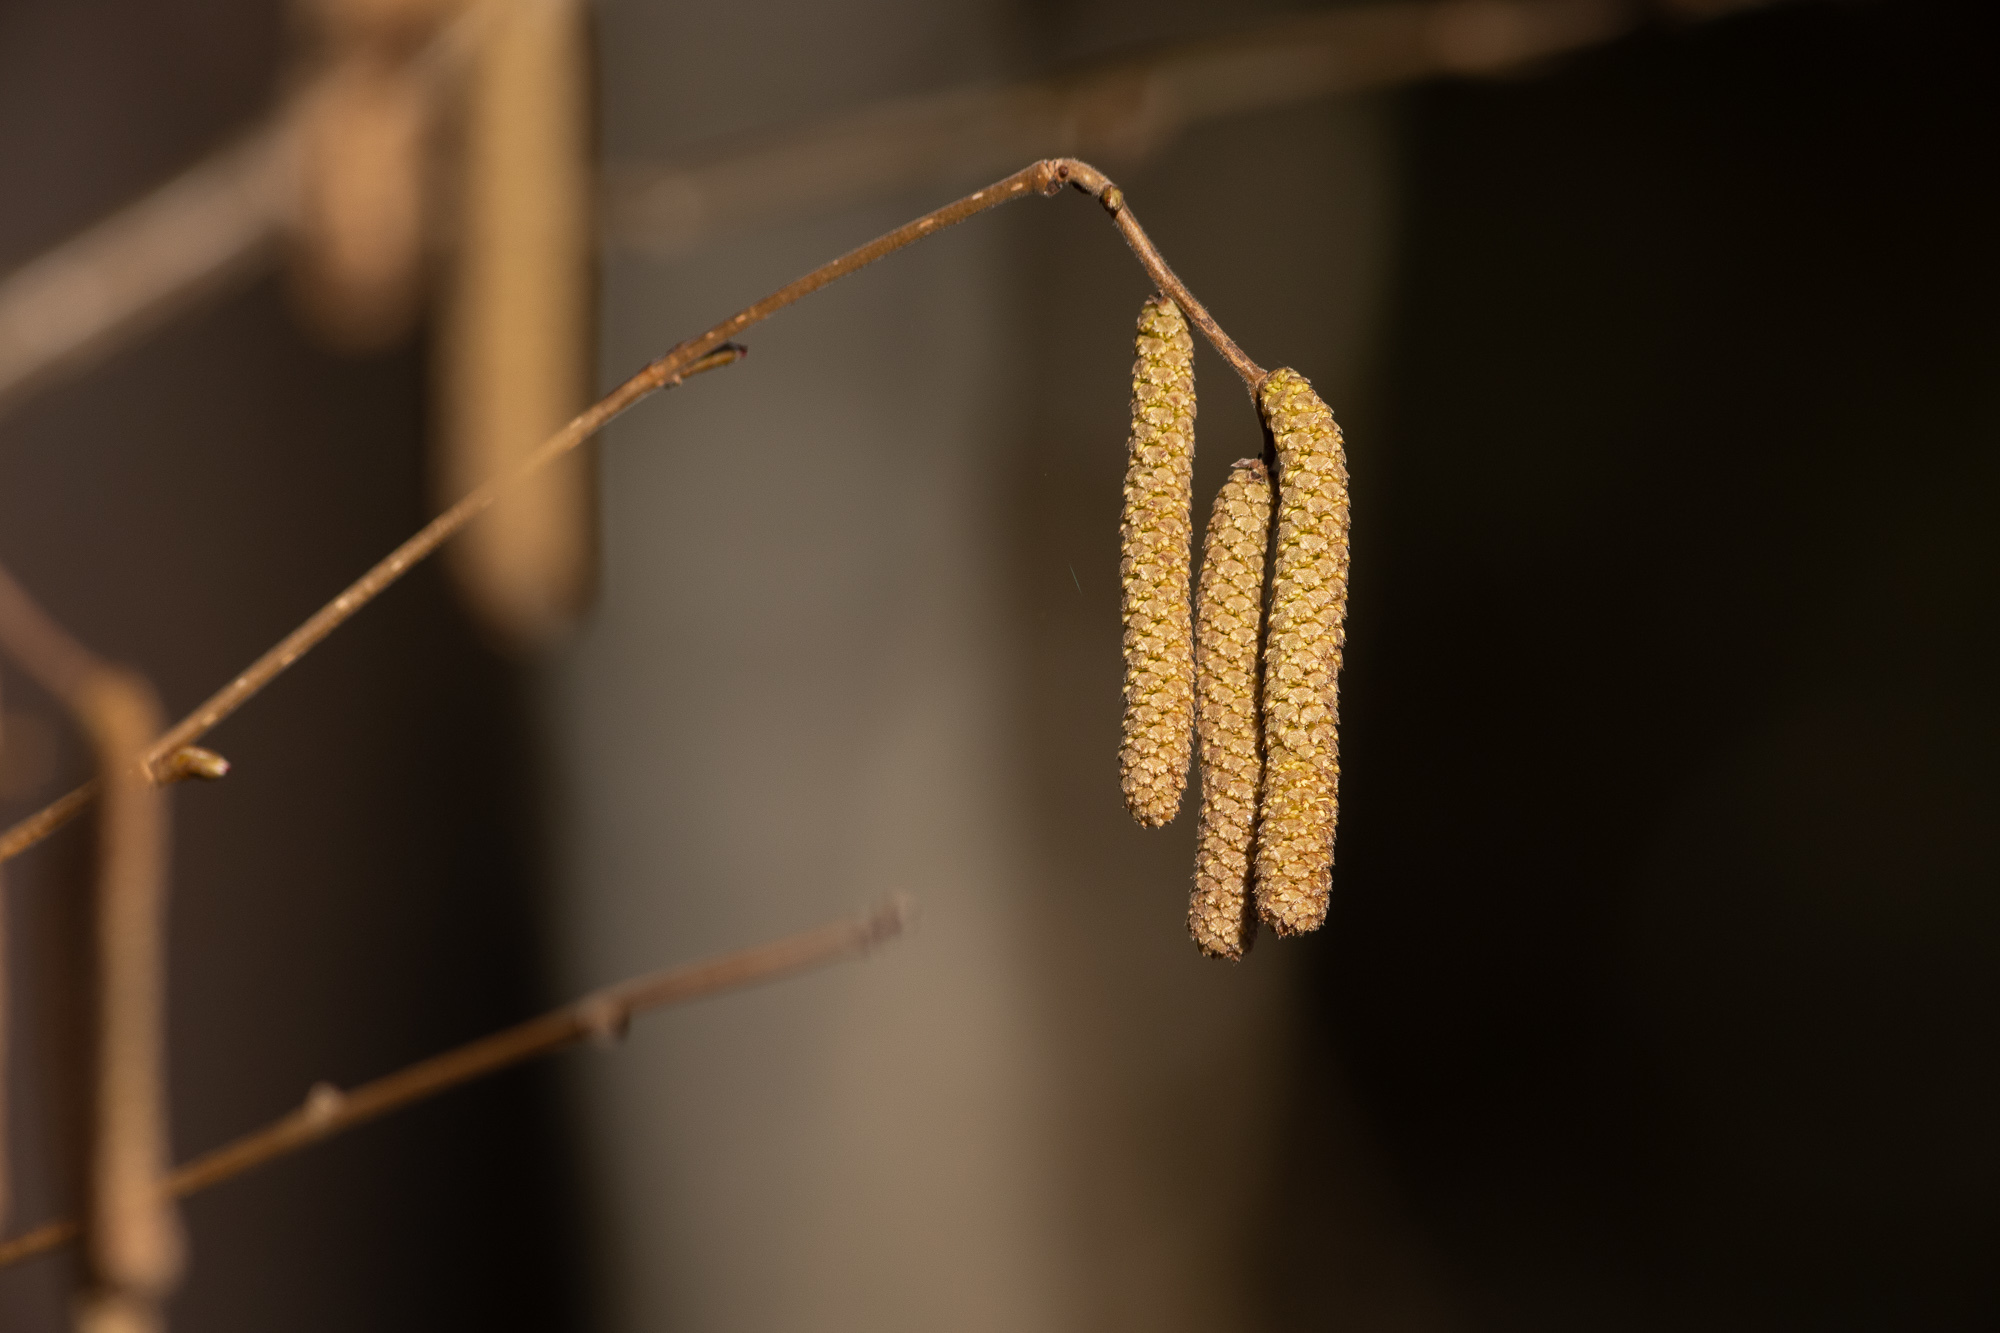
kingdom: Plantae
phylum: Tracheophyta
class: Magnoliopsida
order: Fagales
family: Betulaceae
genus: Corylus
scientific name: Corylus avellana
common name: European hazel
